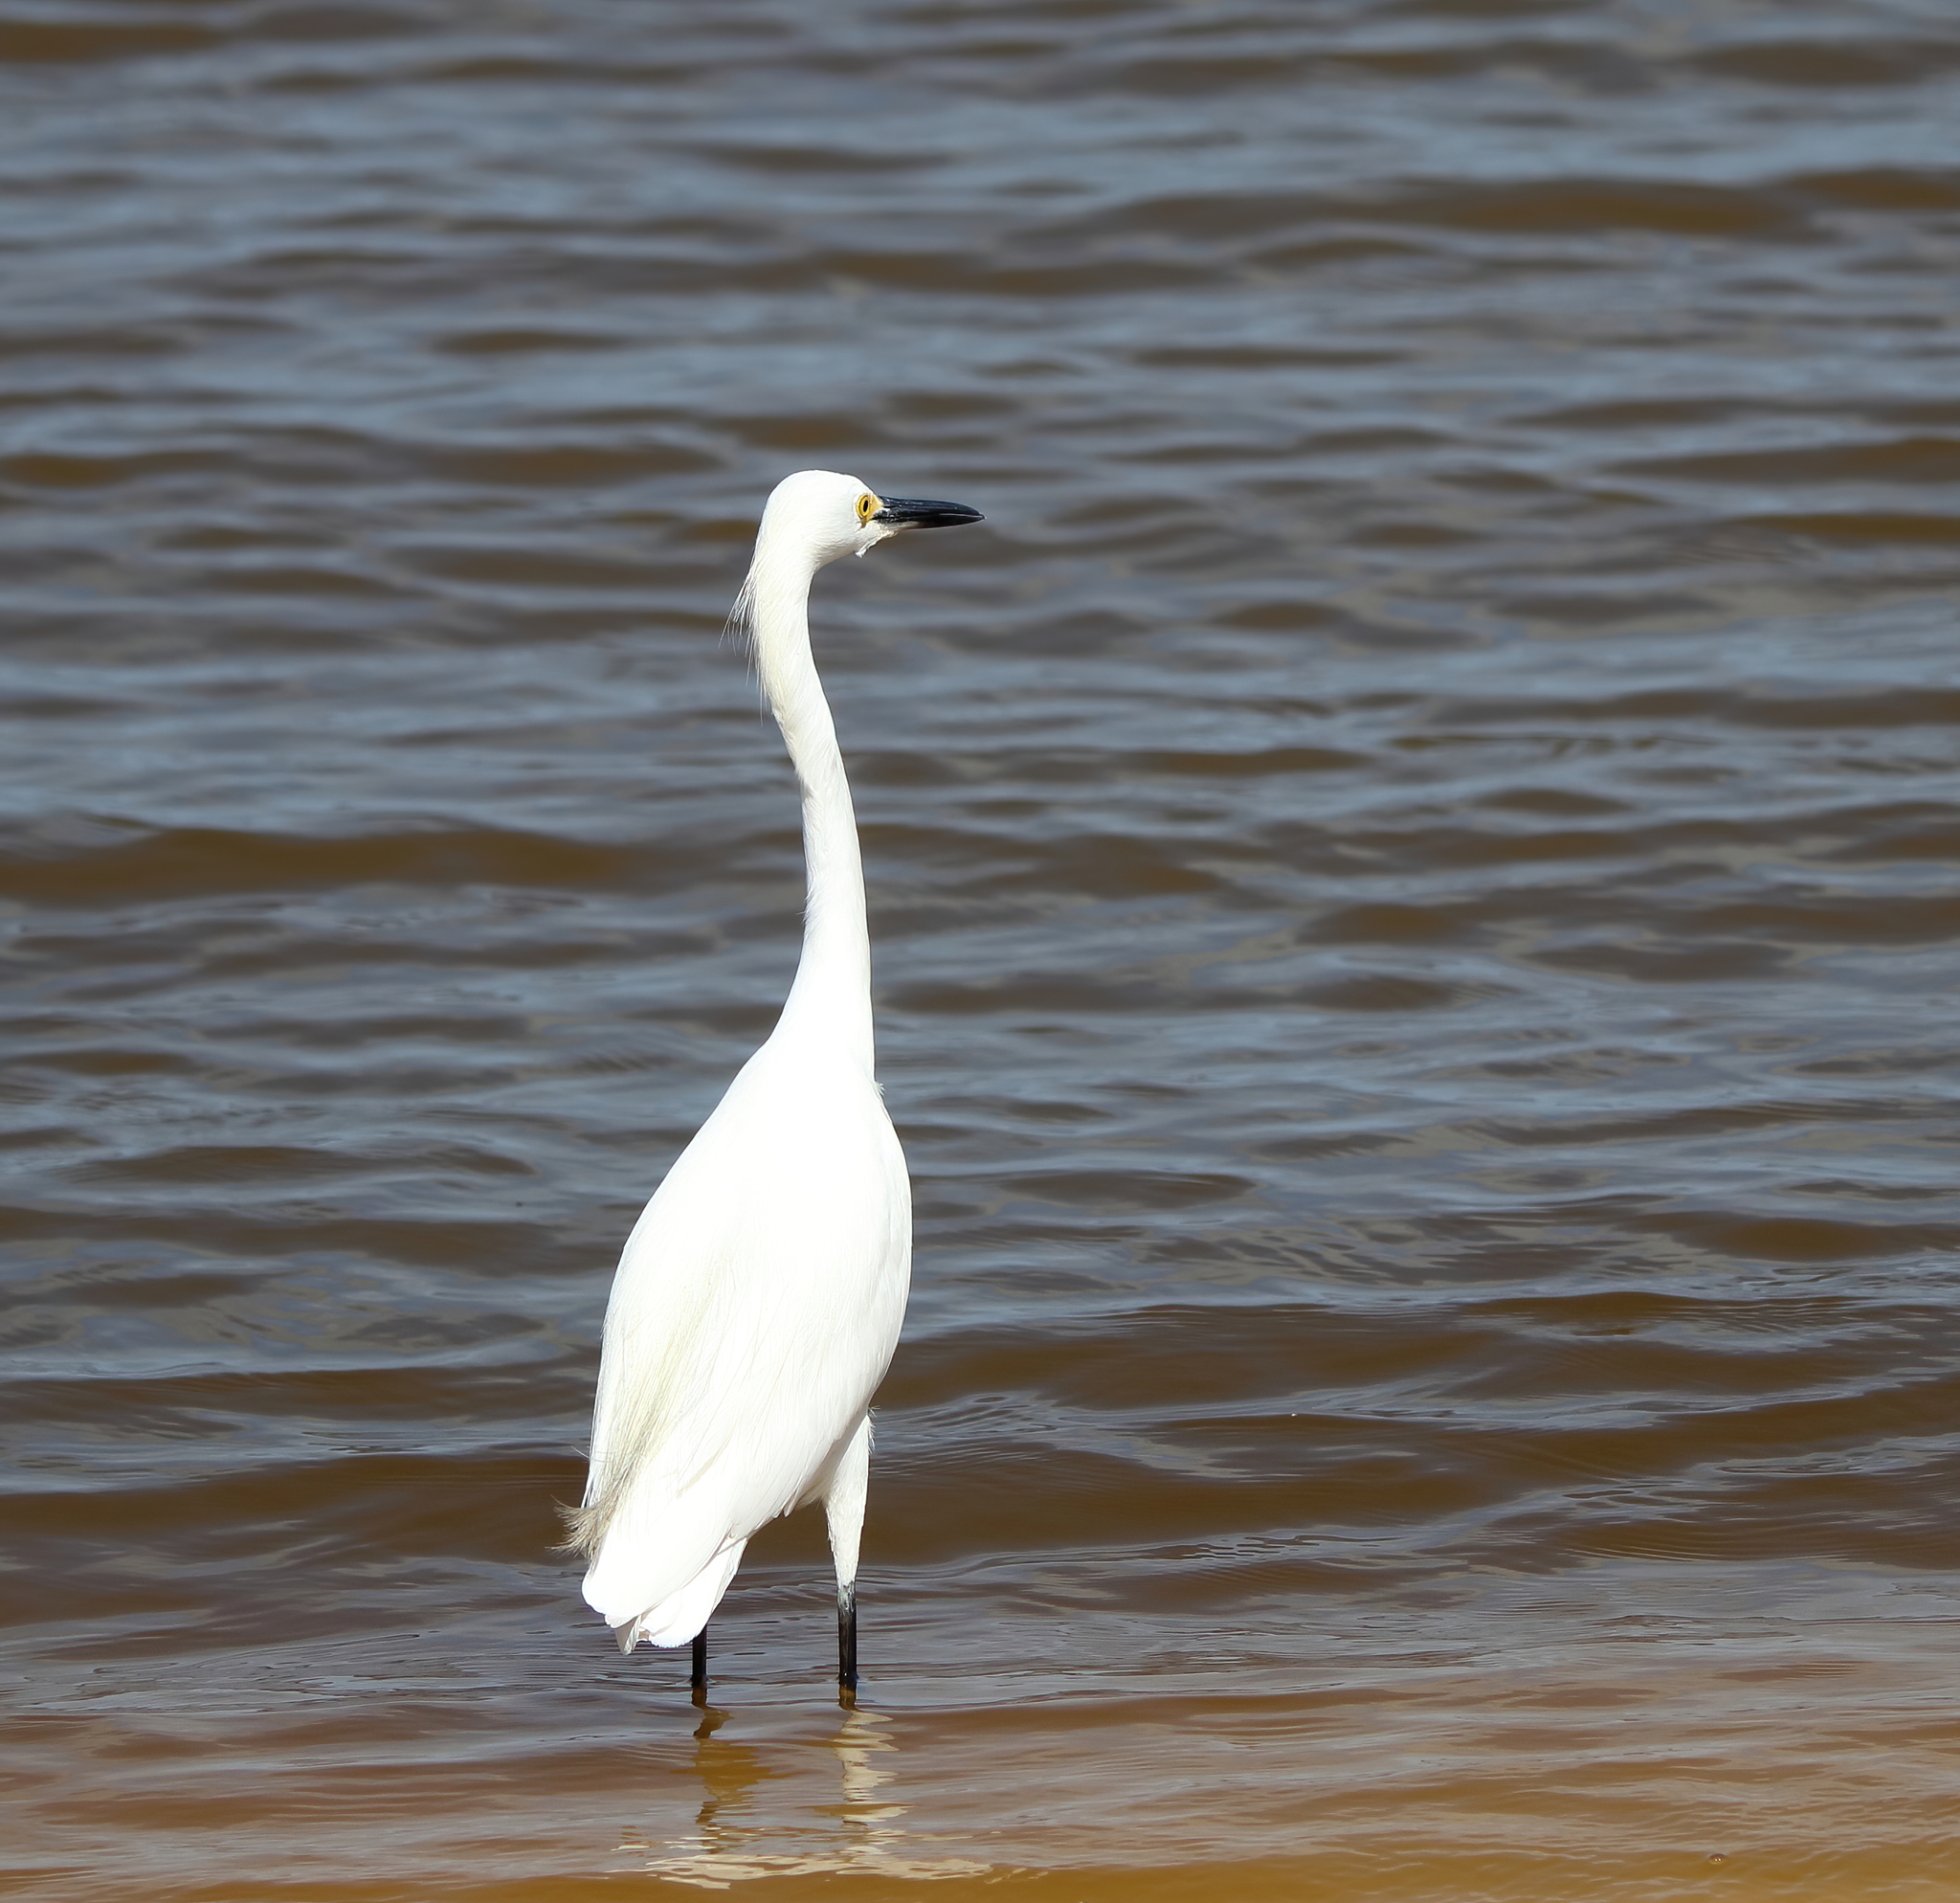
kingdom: Animalia
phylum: Chordata
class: Aves
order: Pelecaniformes
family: Ardeidae
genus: Egretta
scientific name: Egretta thula
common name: Snowy egret
